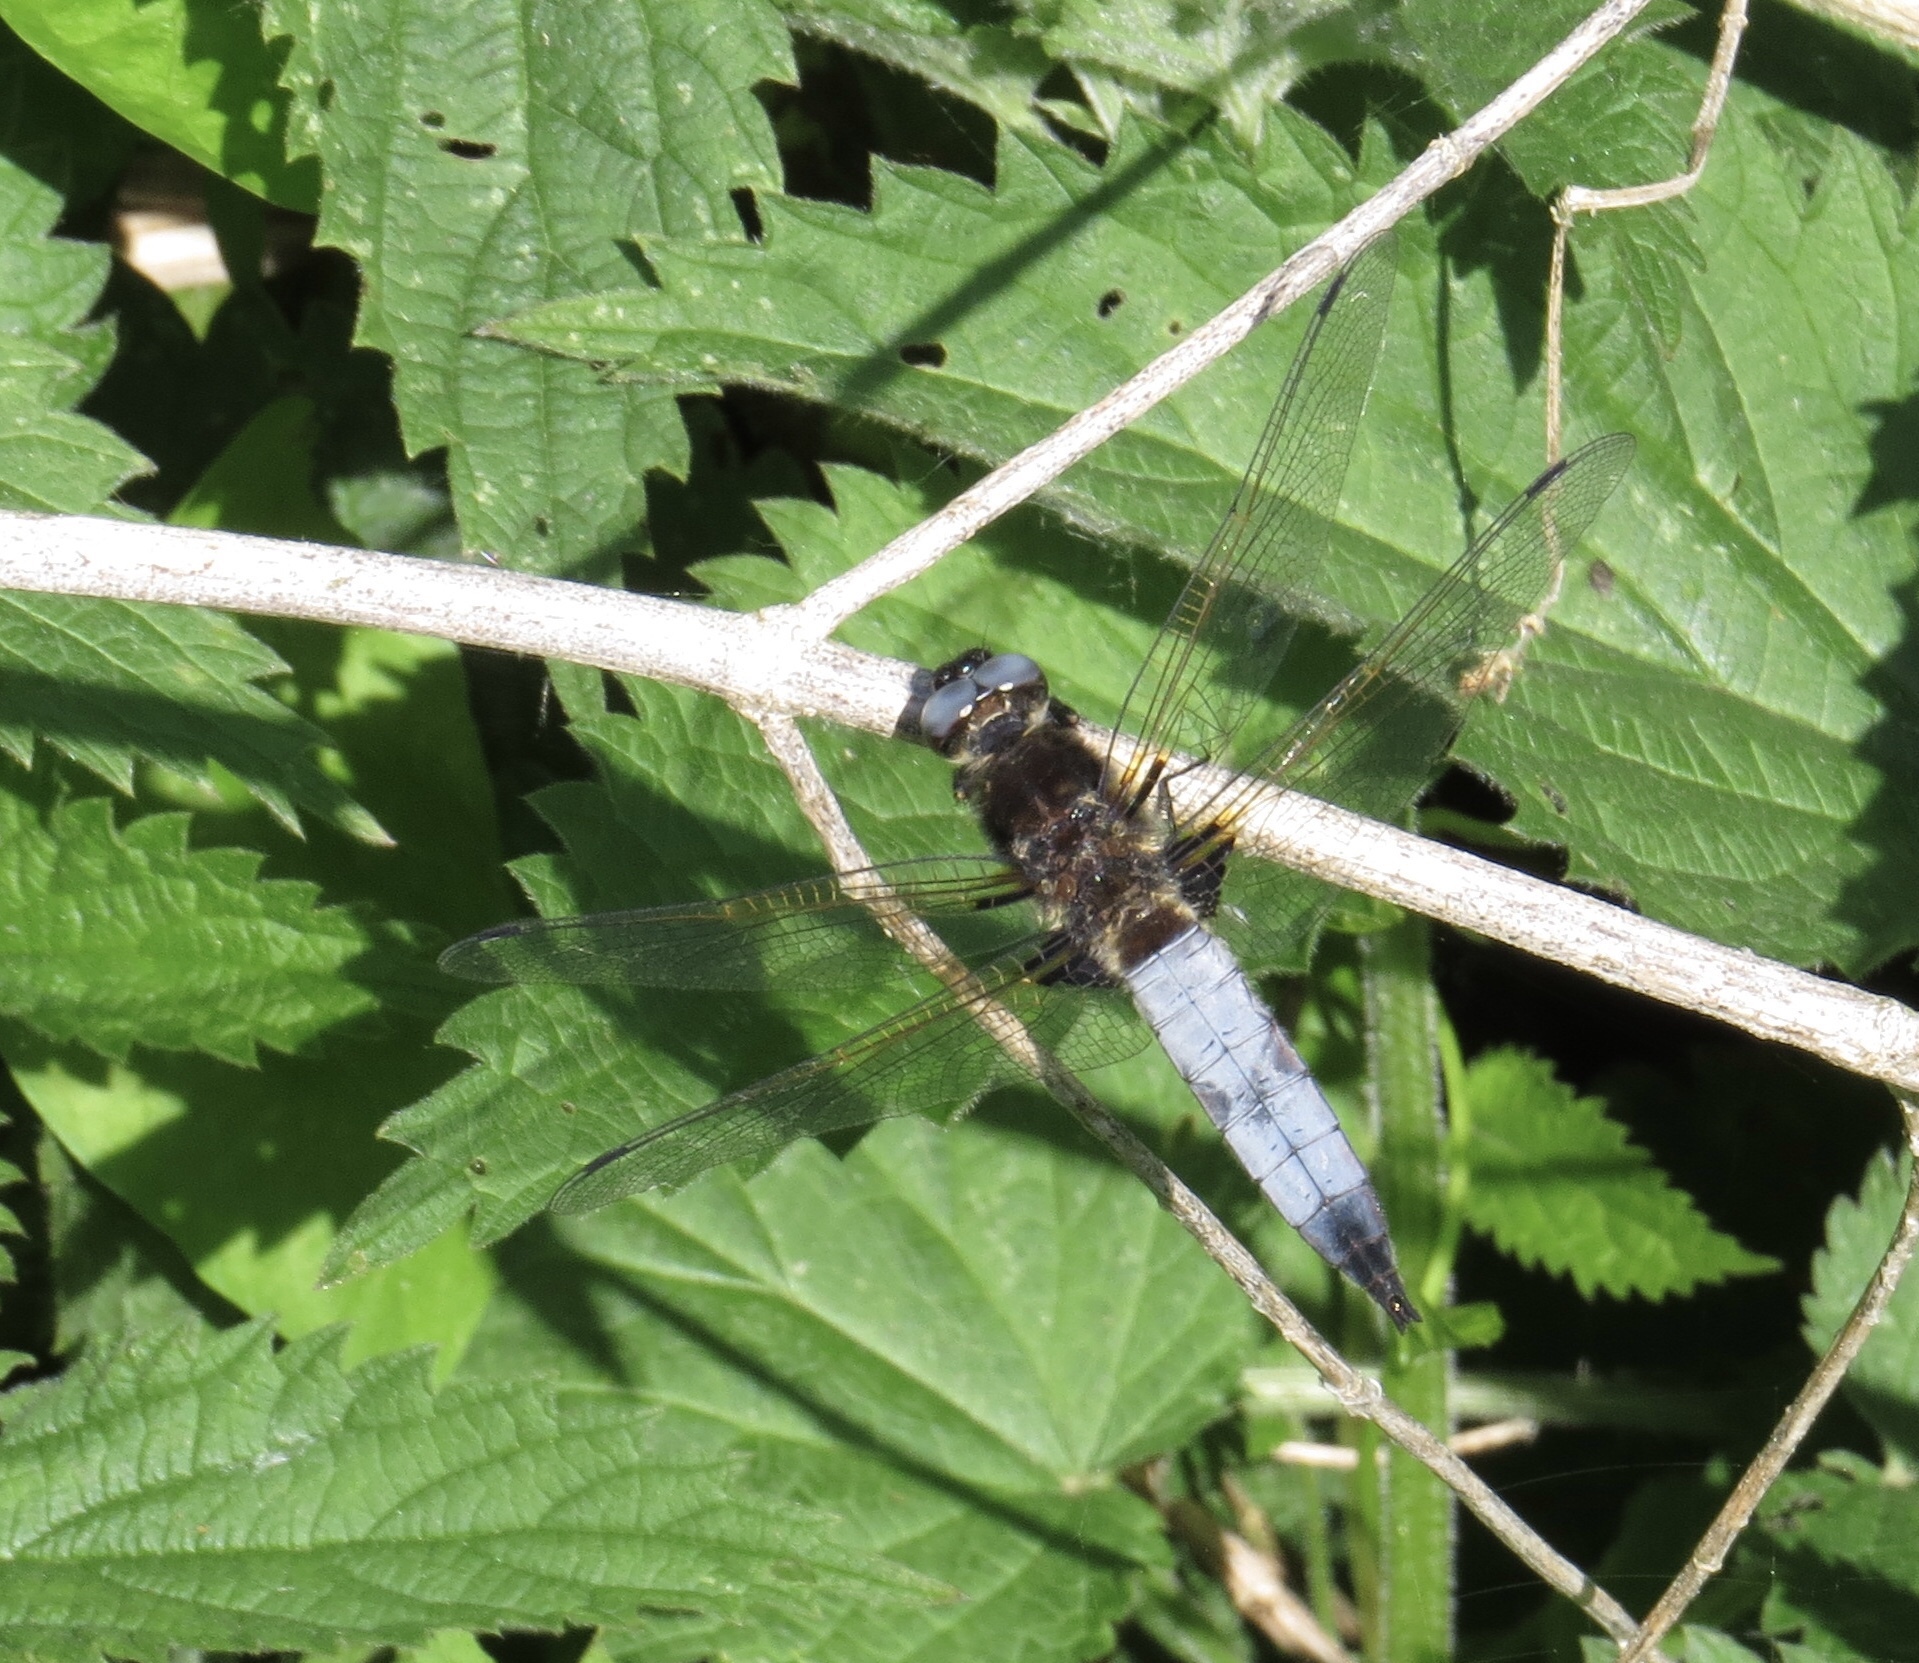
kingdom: Animalia
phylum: Arthropoda
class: Insecta
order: Odonata
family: Libellulidae
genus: Libellula
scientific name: Libellula fulva
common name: Blue chaser
